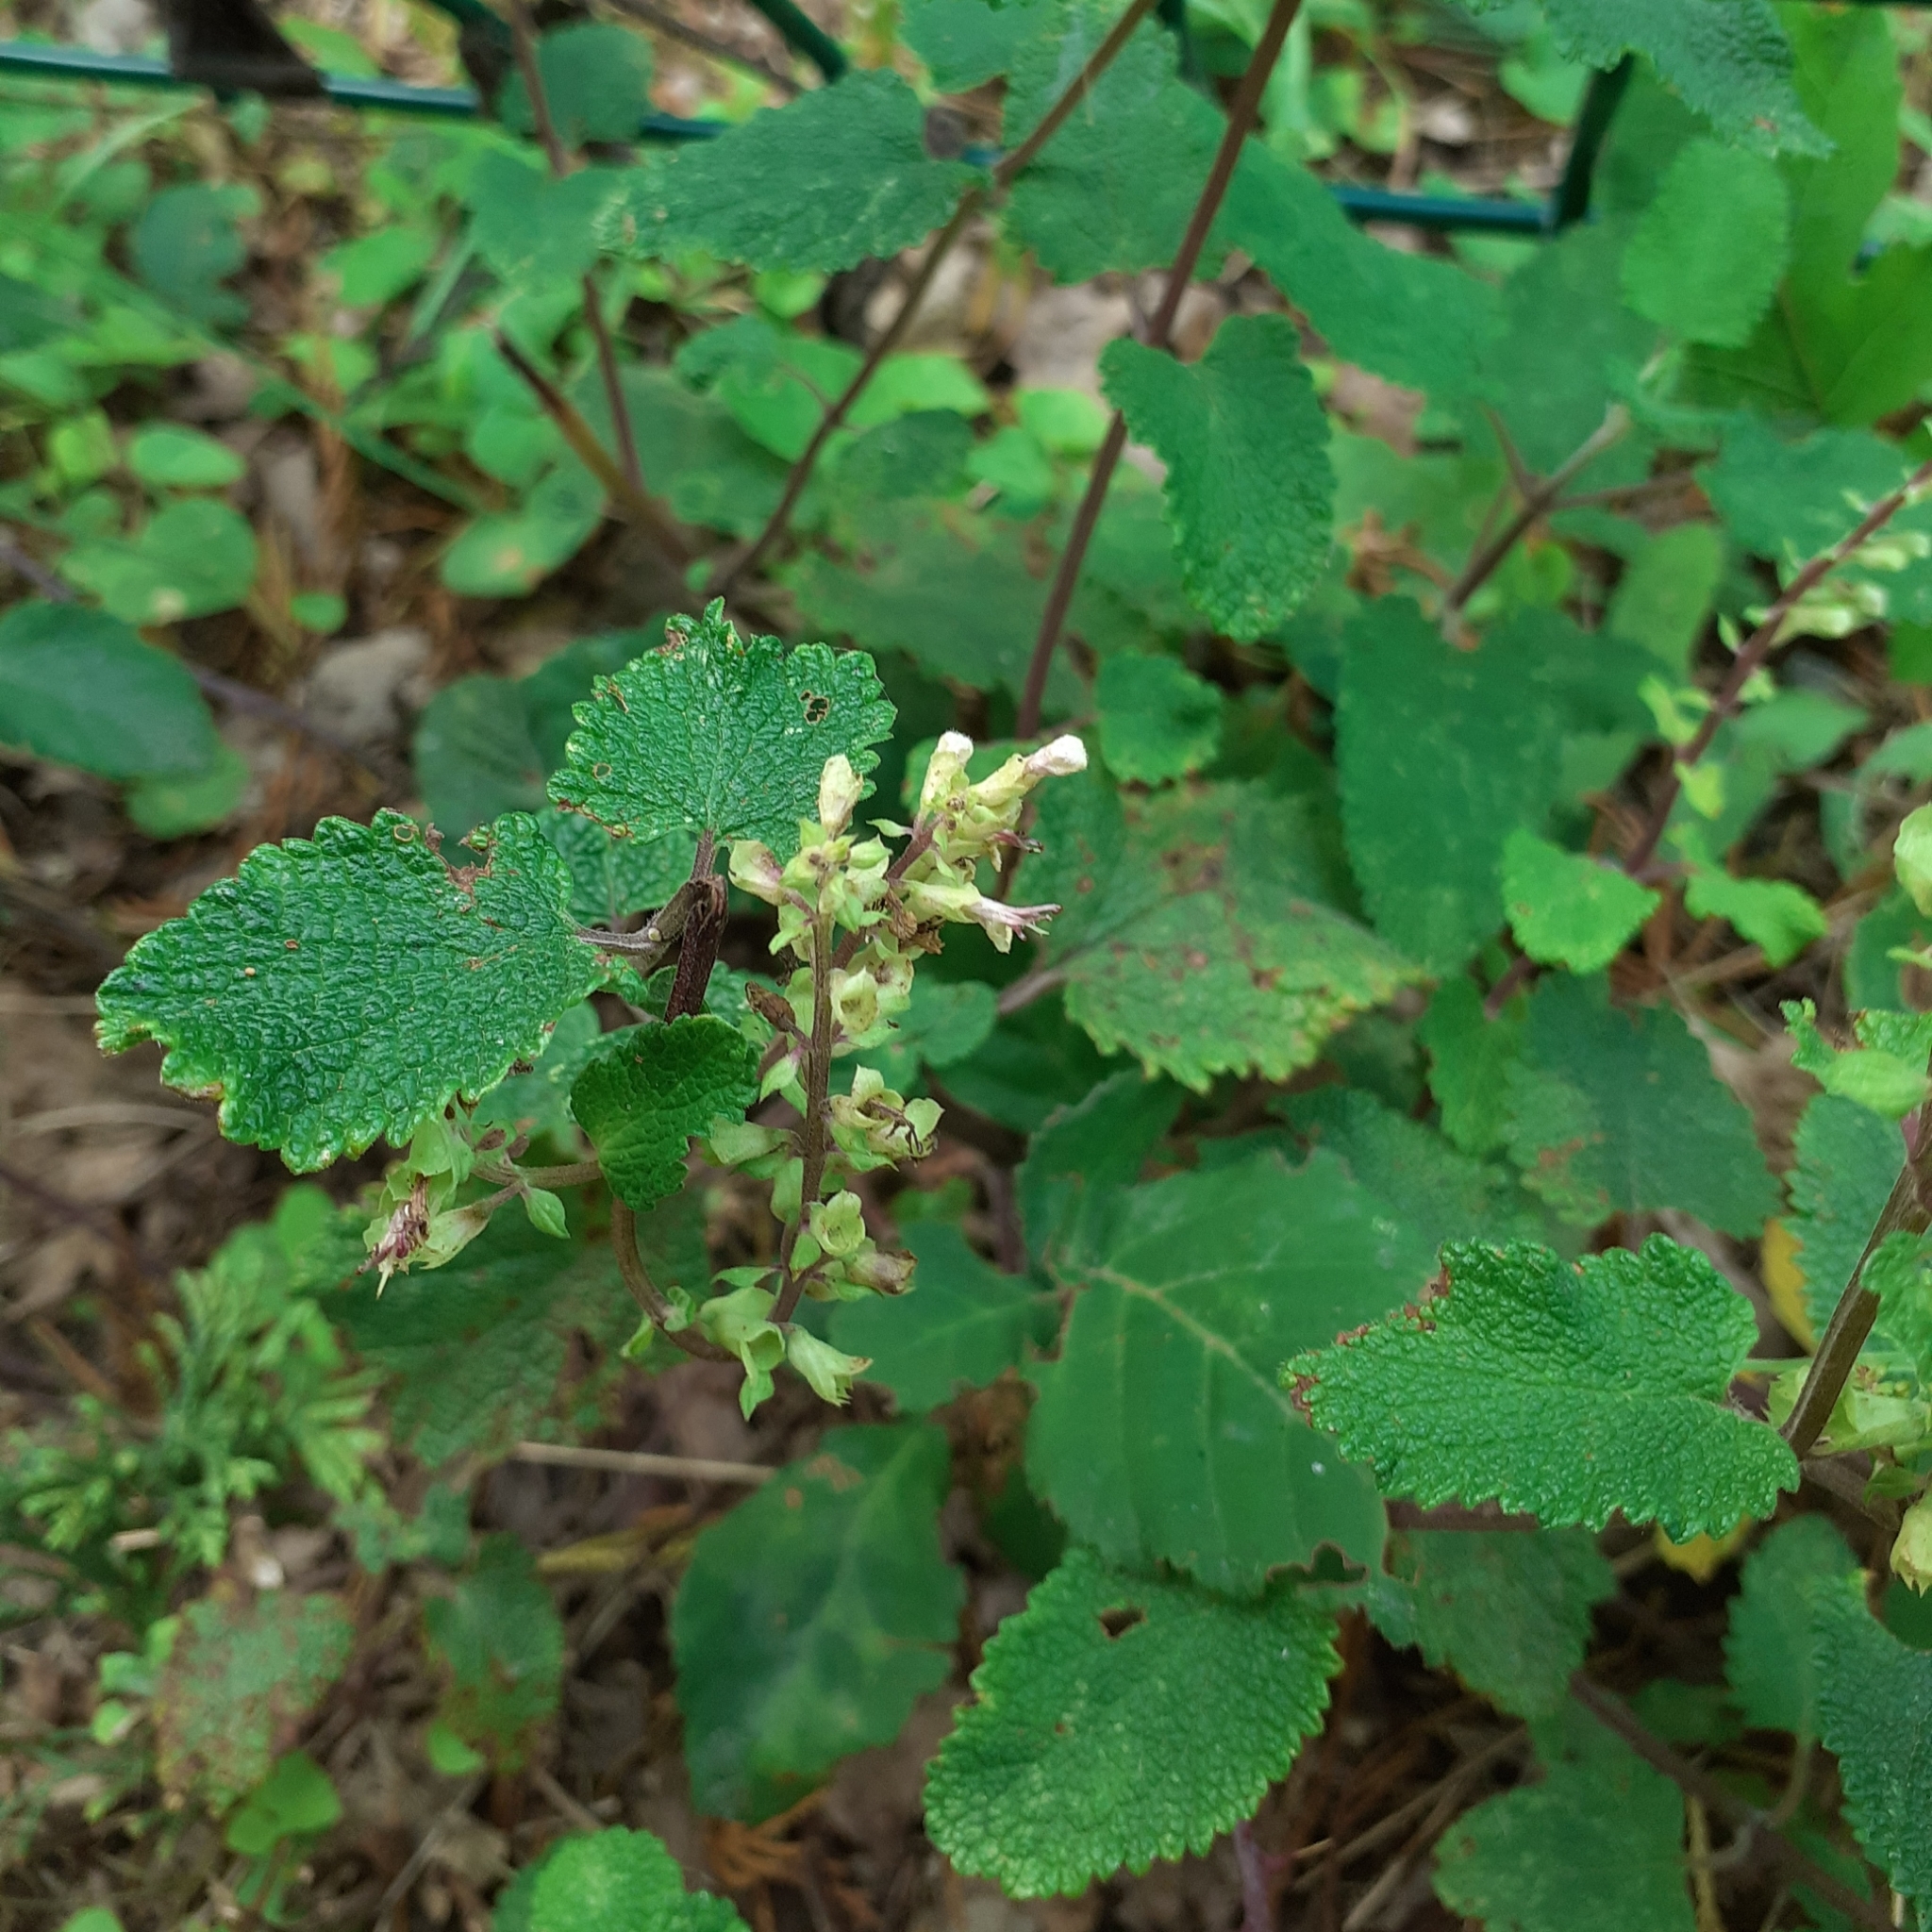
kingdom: Plantae
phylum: Tracheophyta
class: Magnoliopsida
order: Lamiales
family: Lamiaceae
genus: Teucrium
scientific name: Teucrium scorodonia
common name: Woodland germander
